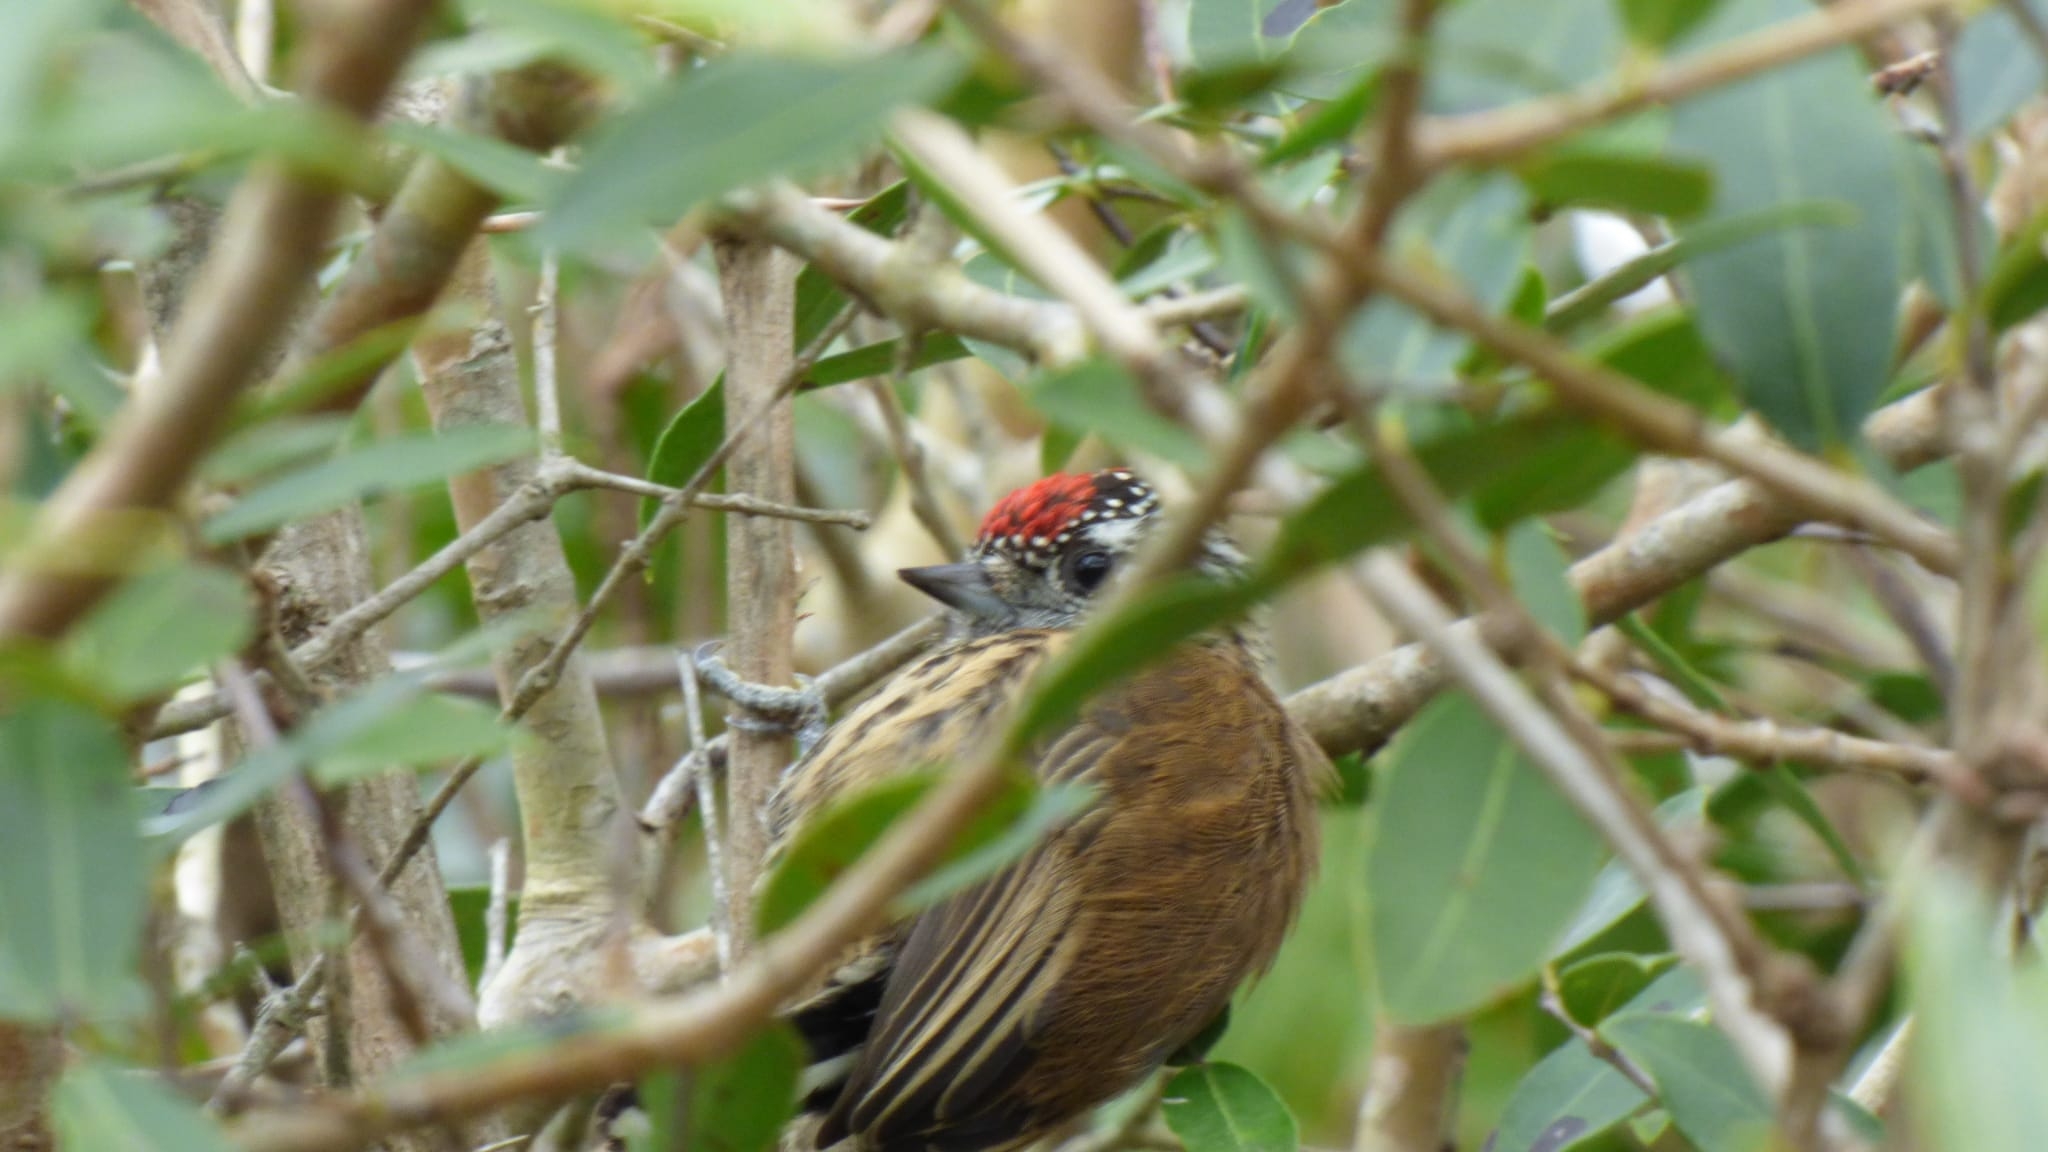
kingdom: Animalia
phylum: Chordata
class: Aves
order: Piciformes
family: Picidae
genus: Picumnus
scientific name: Picumnus nebulosus
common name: Mottled piculet
